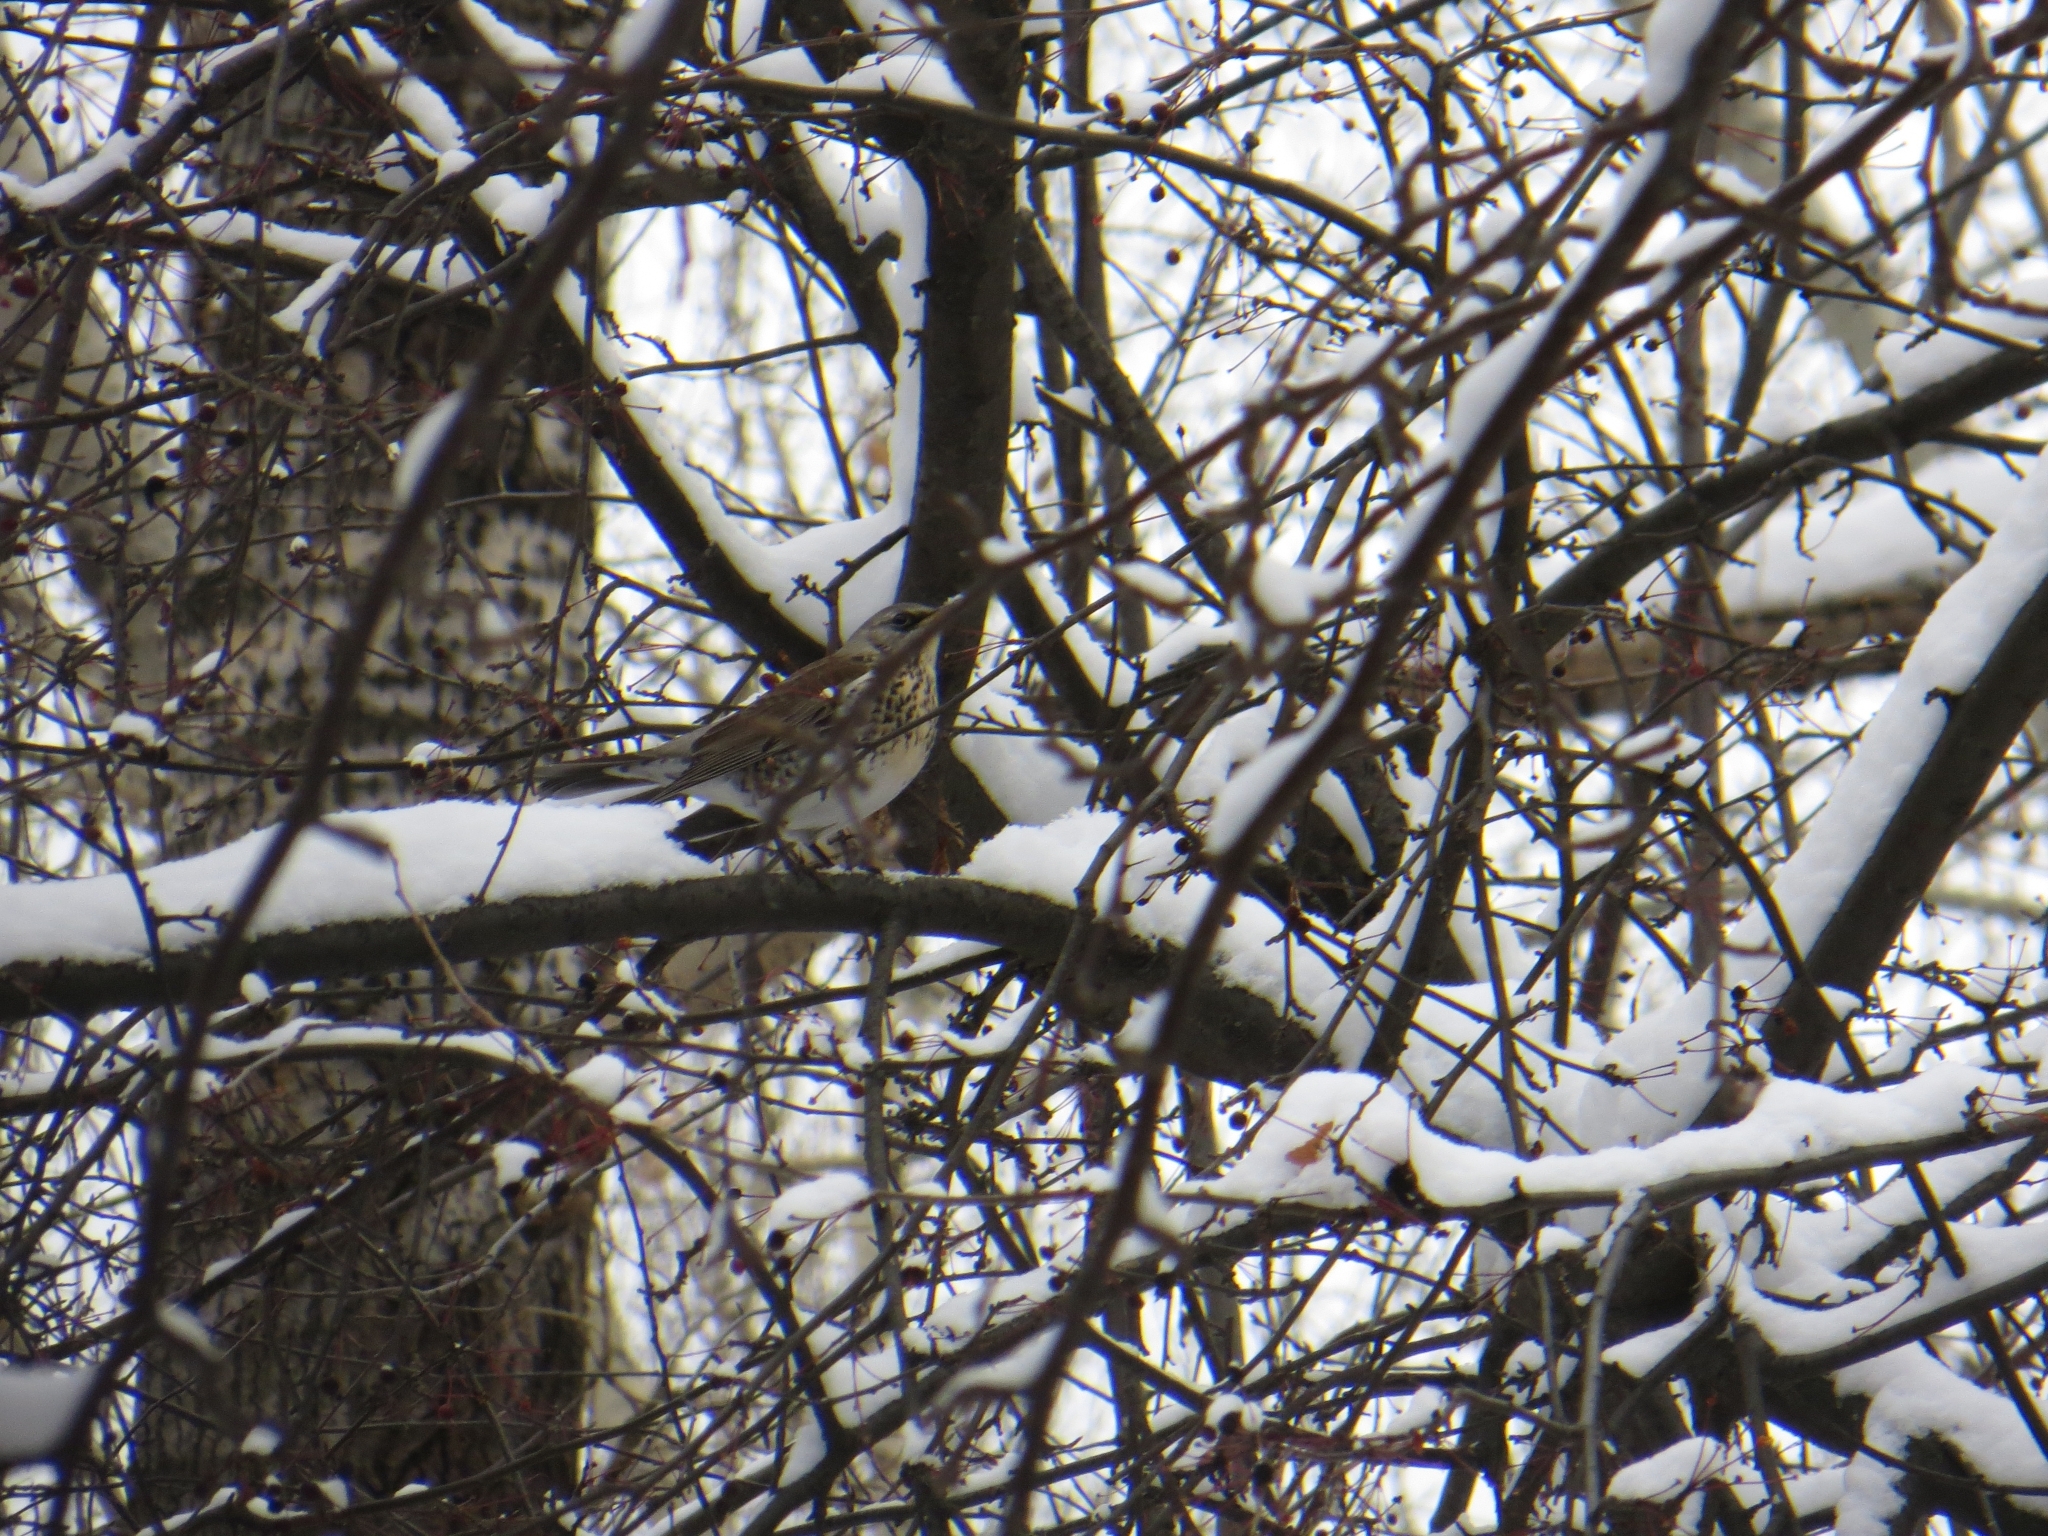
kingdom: Animalia
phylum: Chordata
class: Aves
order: Passeriformes
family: Turdidae
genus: Turdus
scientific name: Turdus pilaris
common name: Fieldfare
